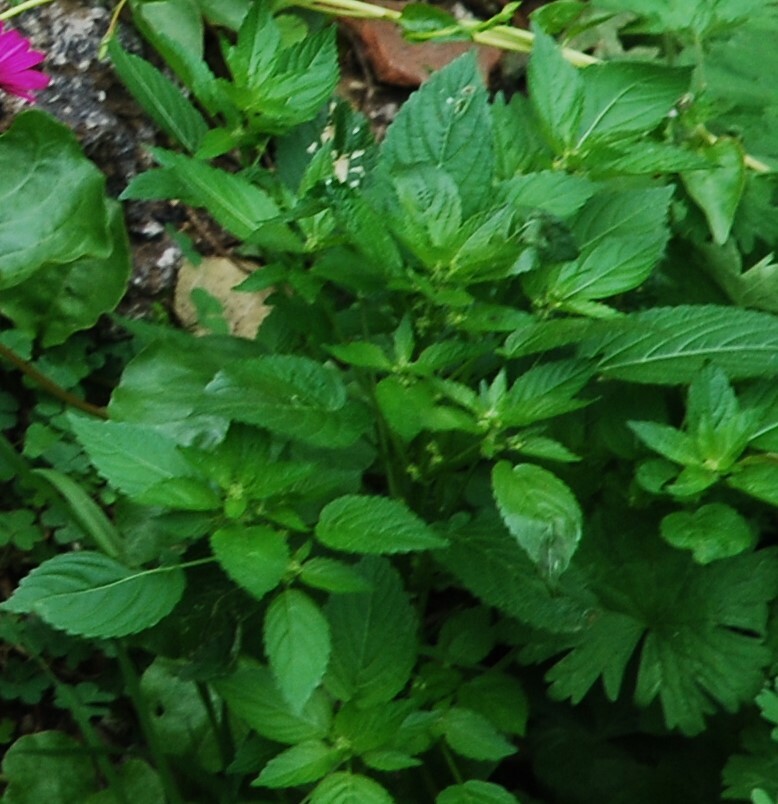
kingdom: Plantae
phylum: Tracheophyta
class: Magnoliopsida
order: Malpighiales
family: Euphorbiaceae
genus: Mercurialis
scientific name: Mercurialis annua
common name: Annual mercury
